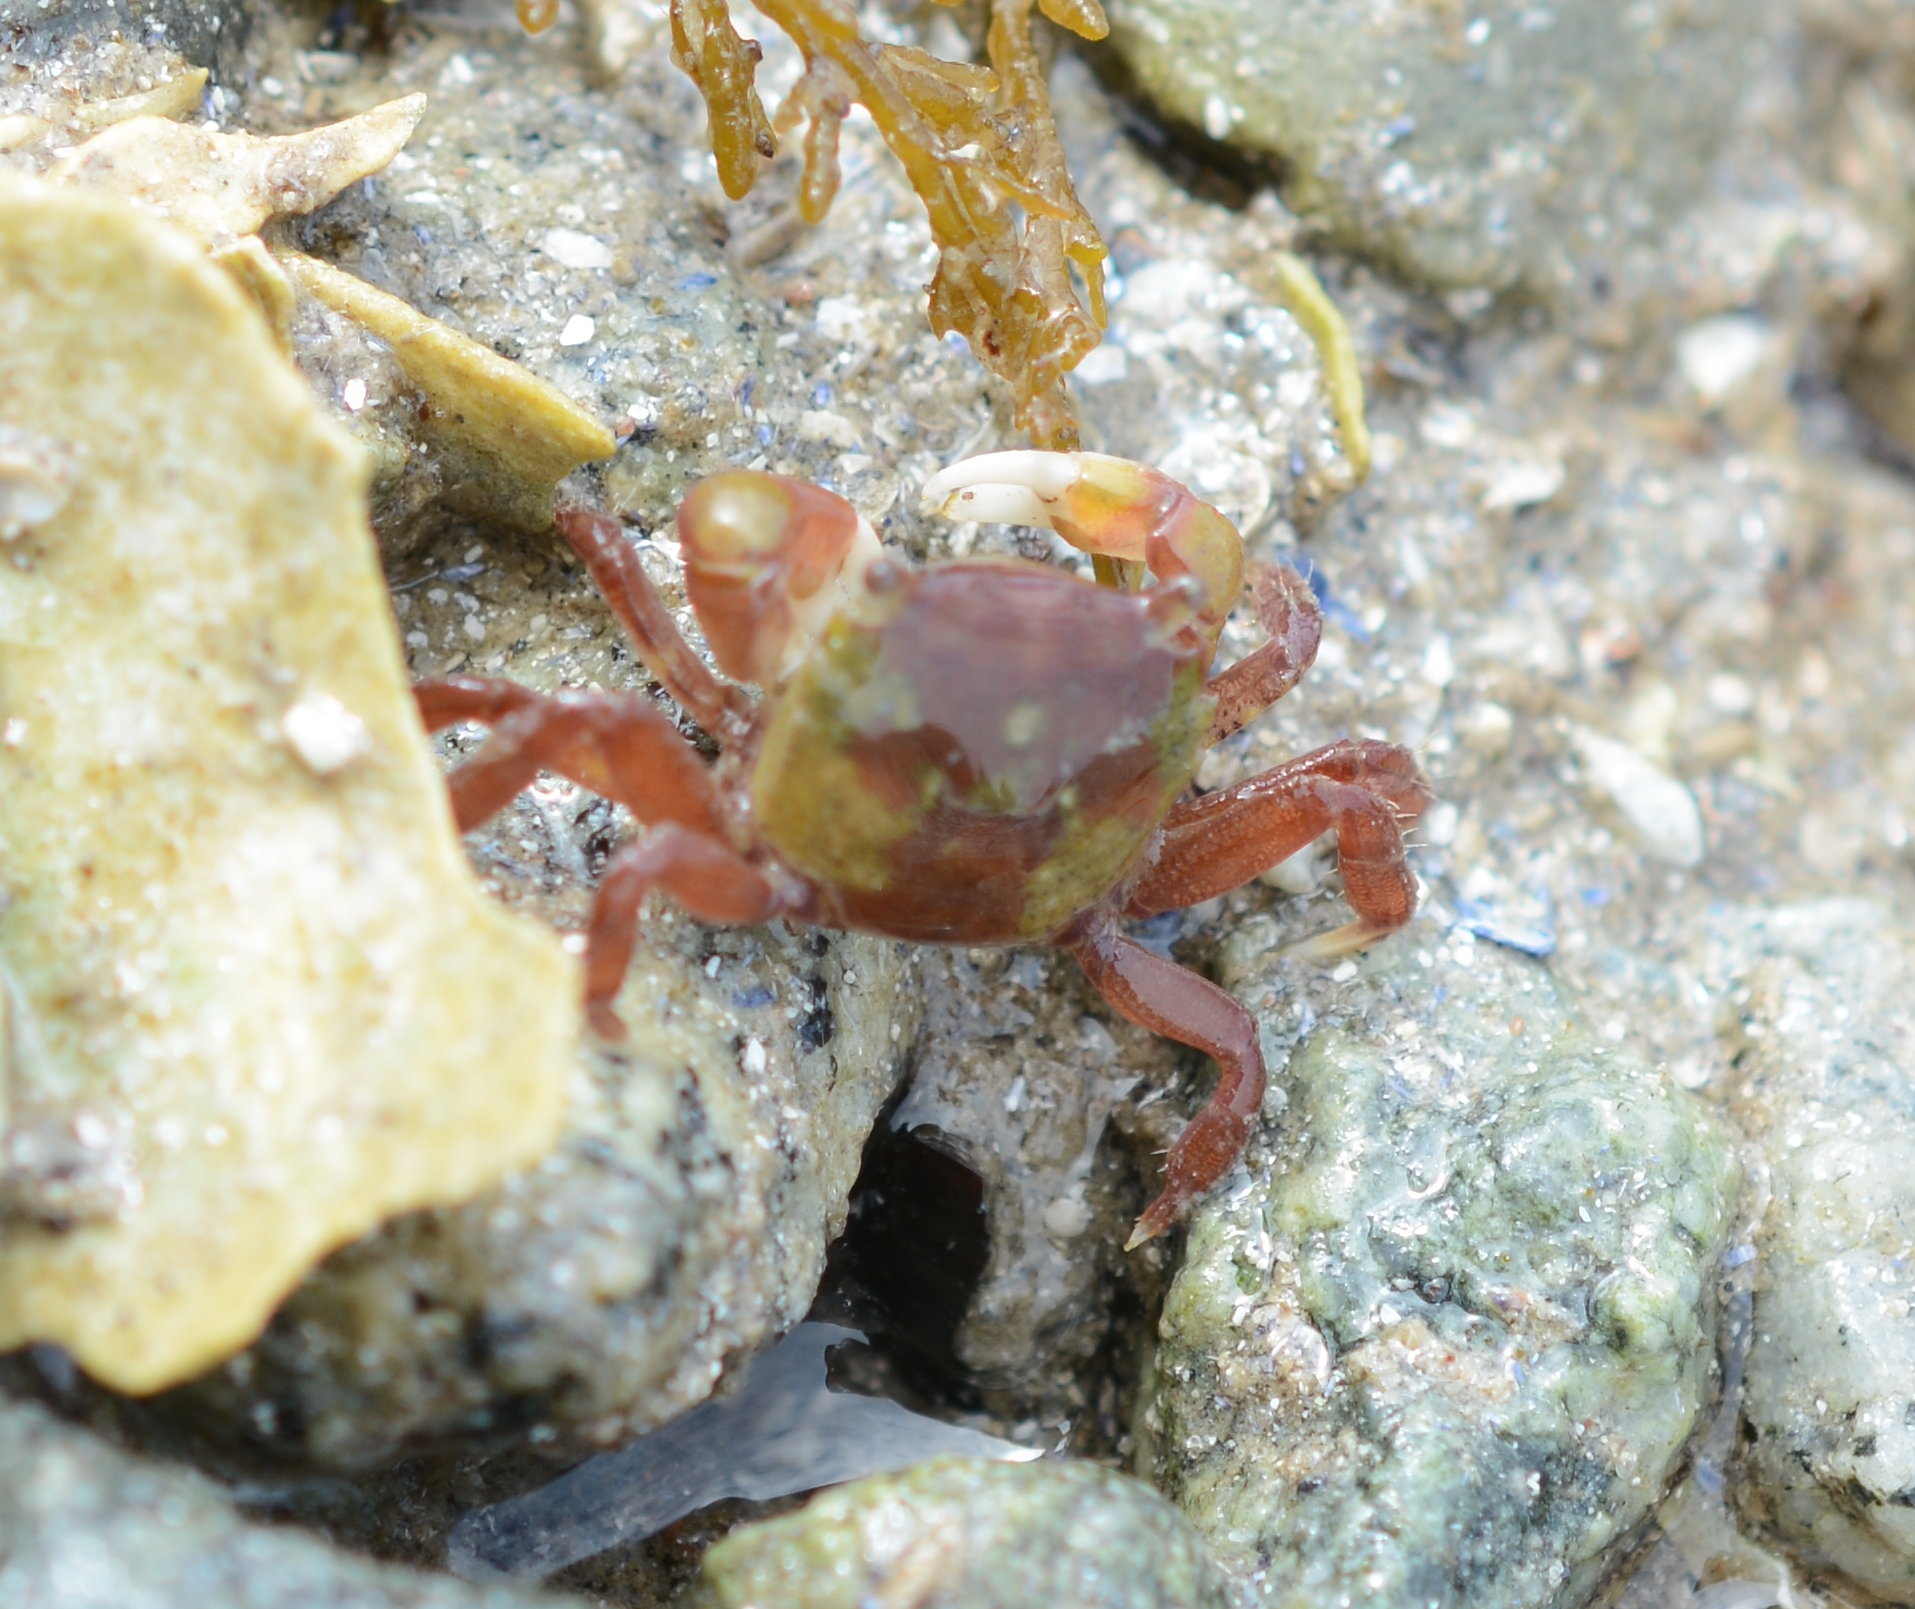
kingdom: Animalia
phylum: Arthropoda
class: Malacostraca
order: Decapoda
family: Varunidae
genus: Hemigrapsus
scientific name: Hemigrapsus oregonensis
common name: Yellow shore crab
